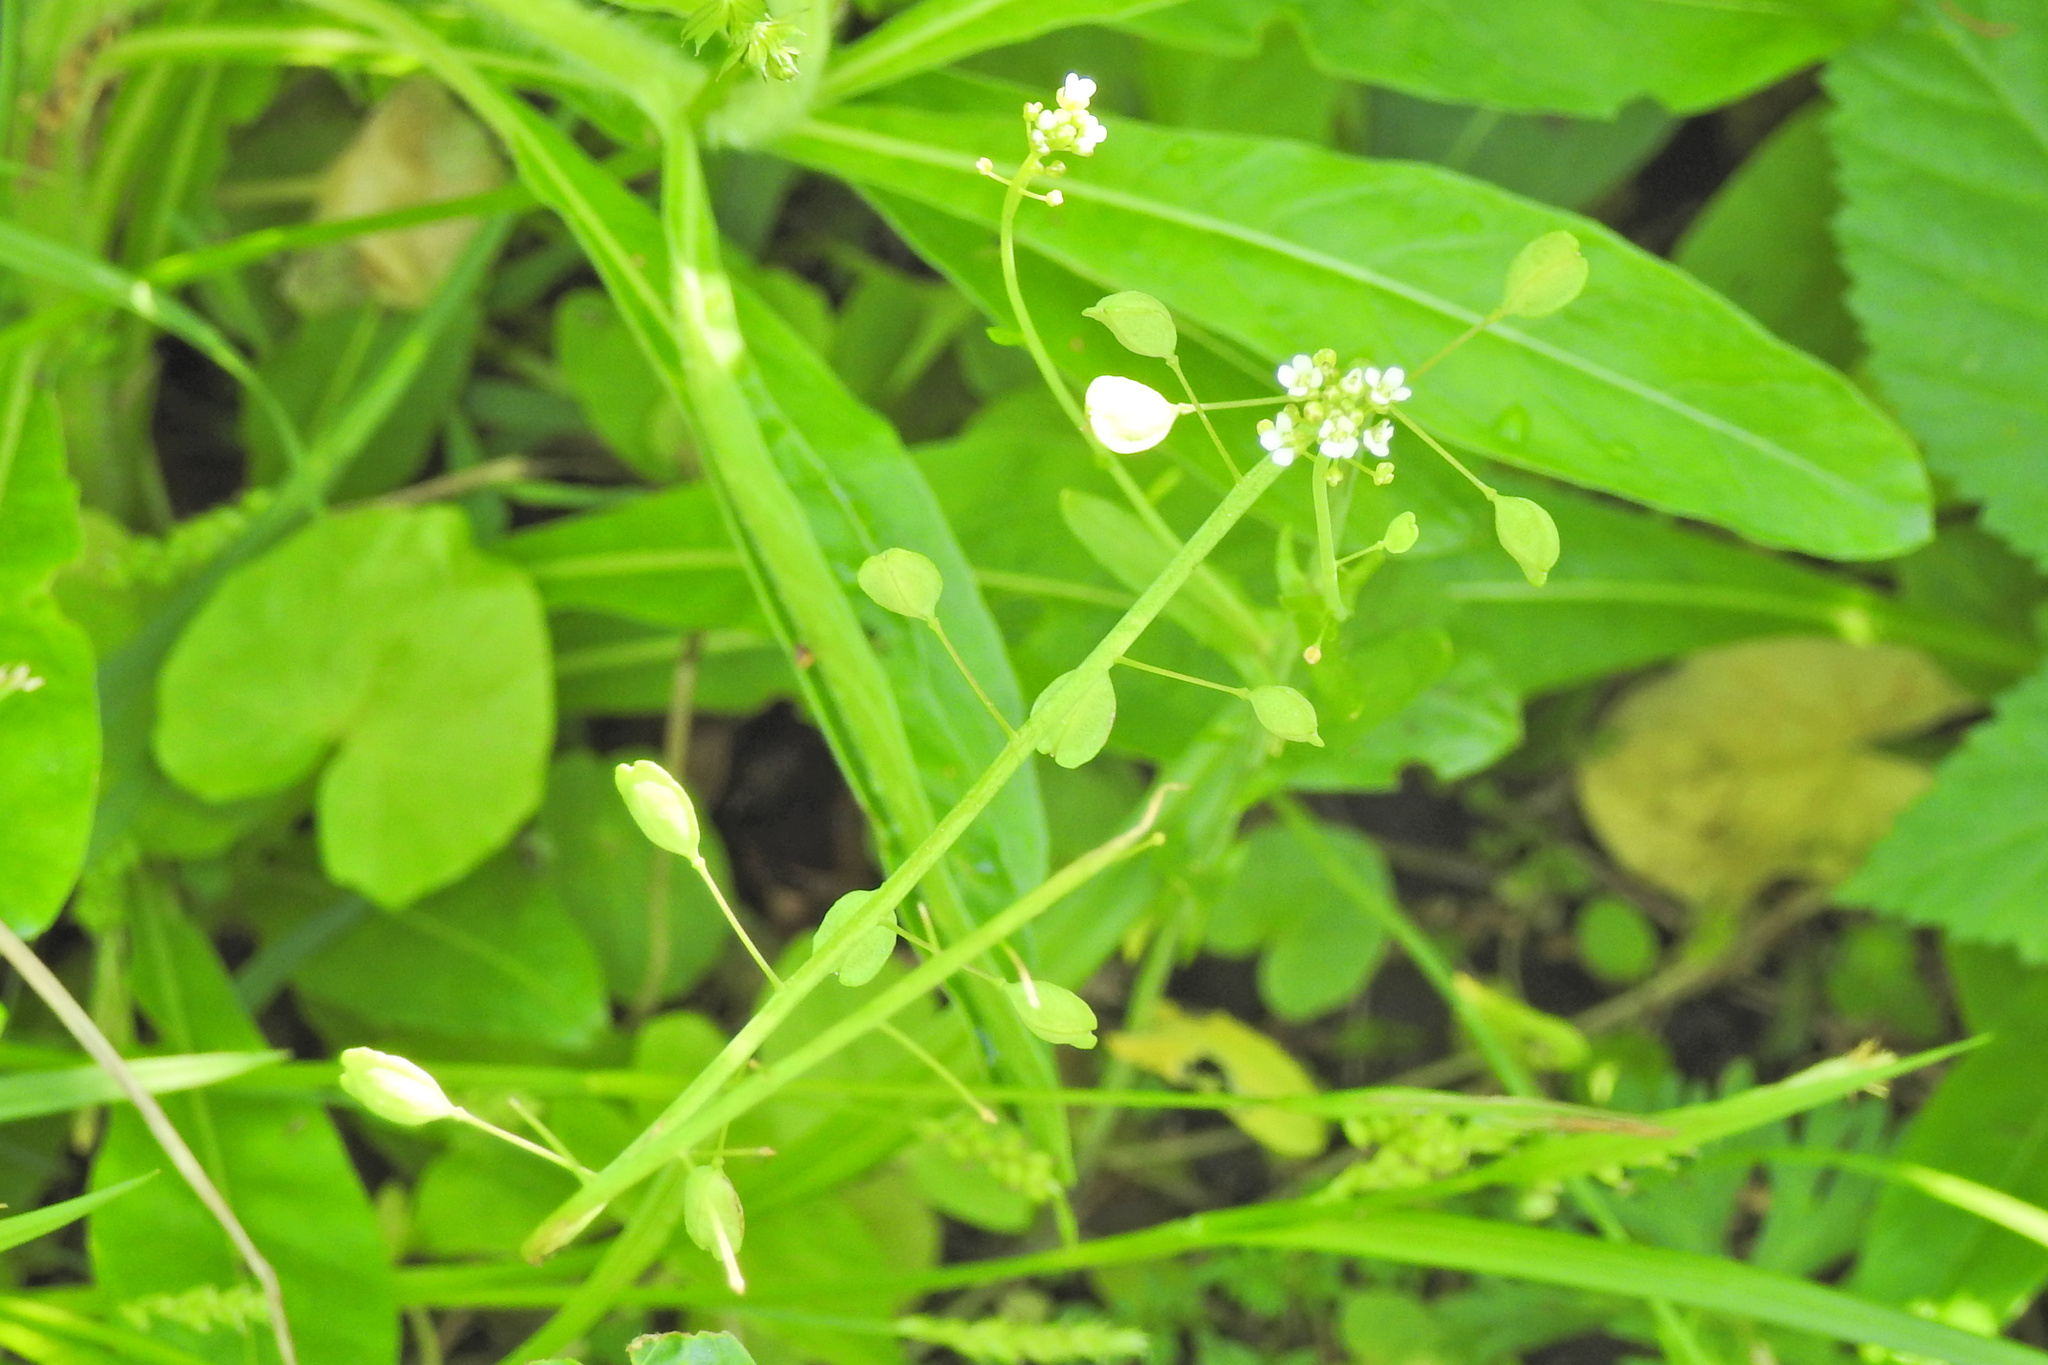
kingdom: Plantae
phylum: Tracheophyta
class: Magnoliopsida
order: Brassicales
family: Brassicaceae
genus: Mummenhoffia
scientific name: Mummenhoffia alliacea
